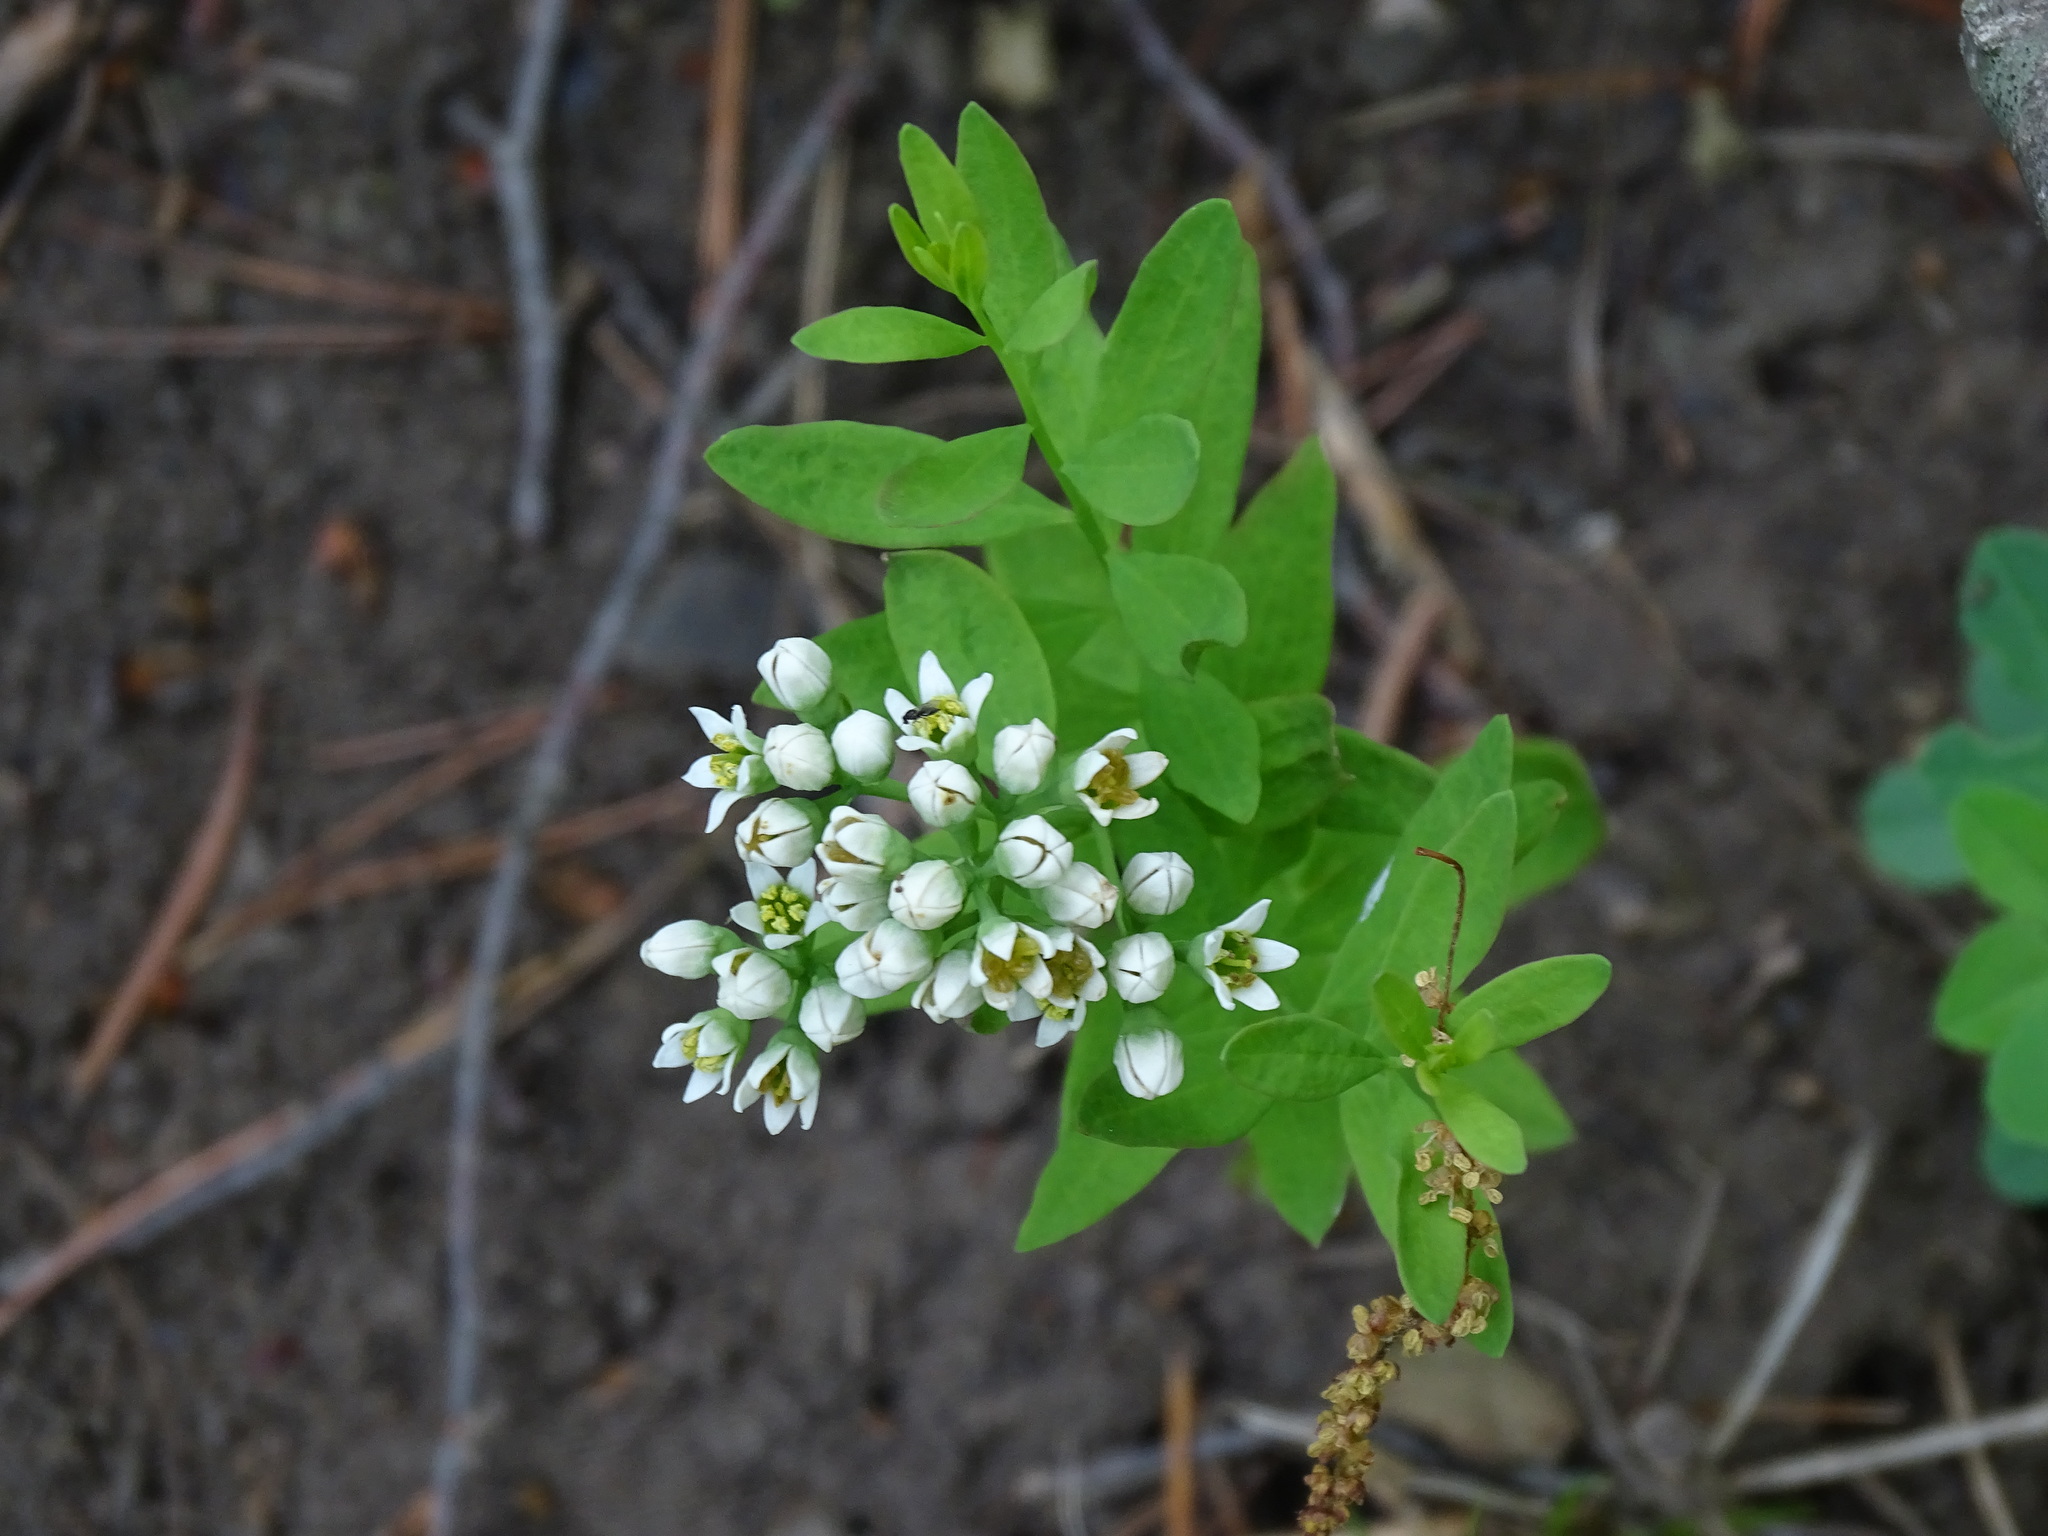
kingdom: Plantae
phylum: Tracheophyta
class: Magnoliopsida
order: Santalales
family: Comandraceae
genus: Comandra
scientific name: Comandra umbellata
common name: Bastard toadflax
